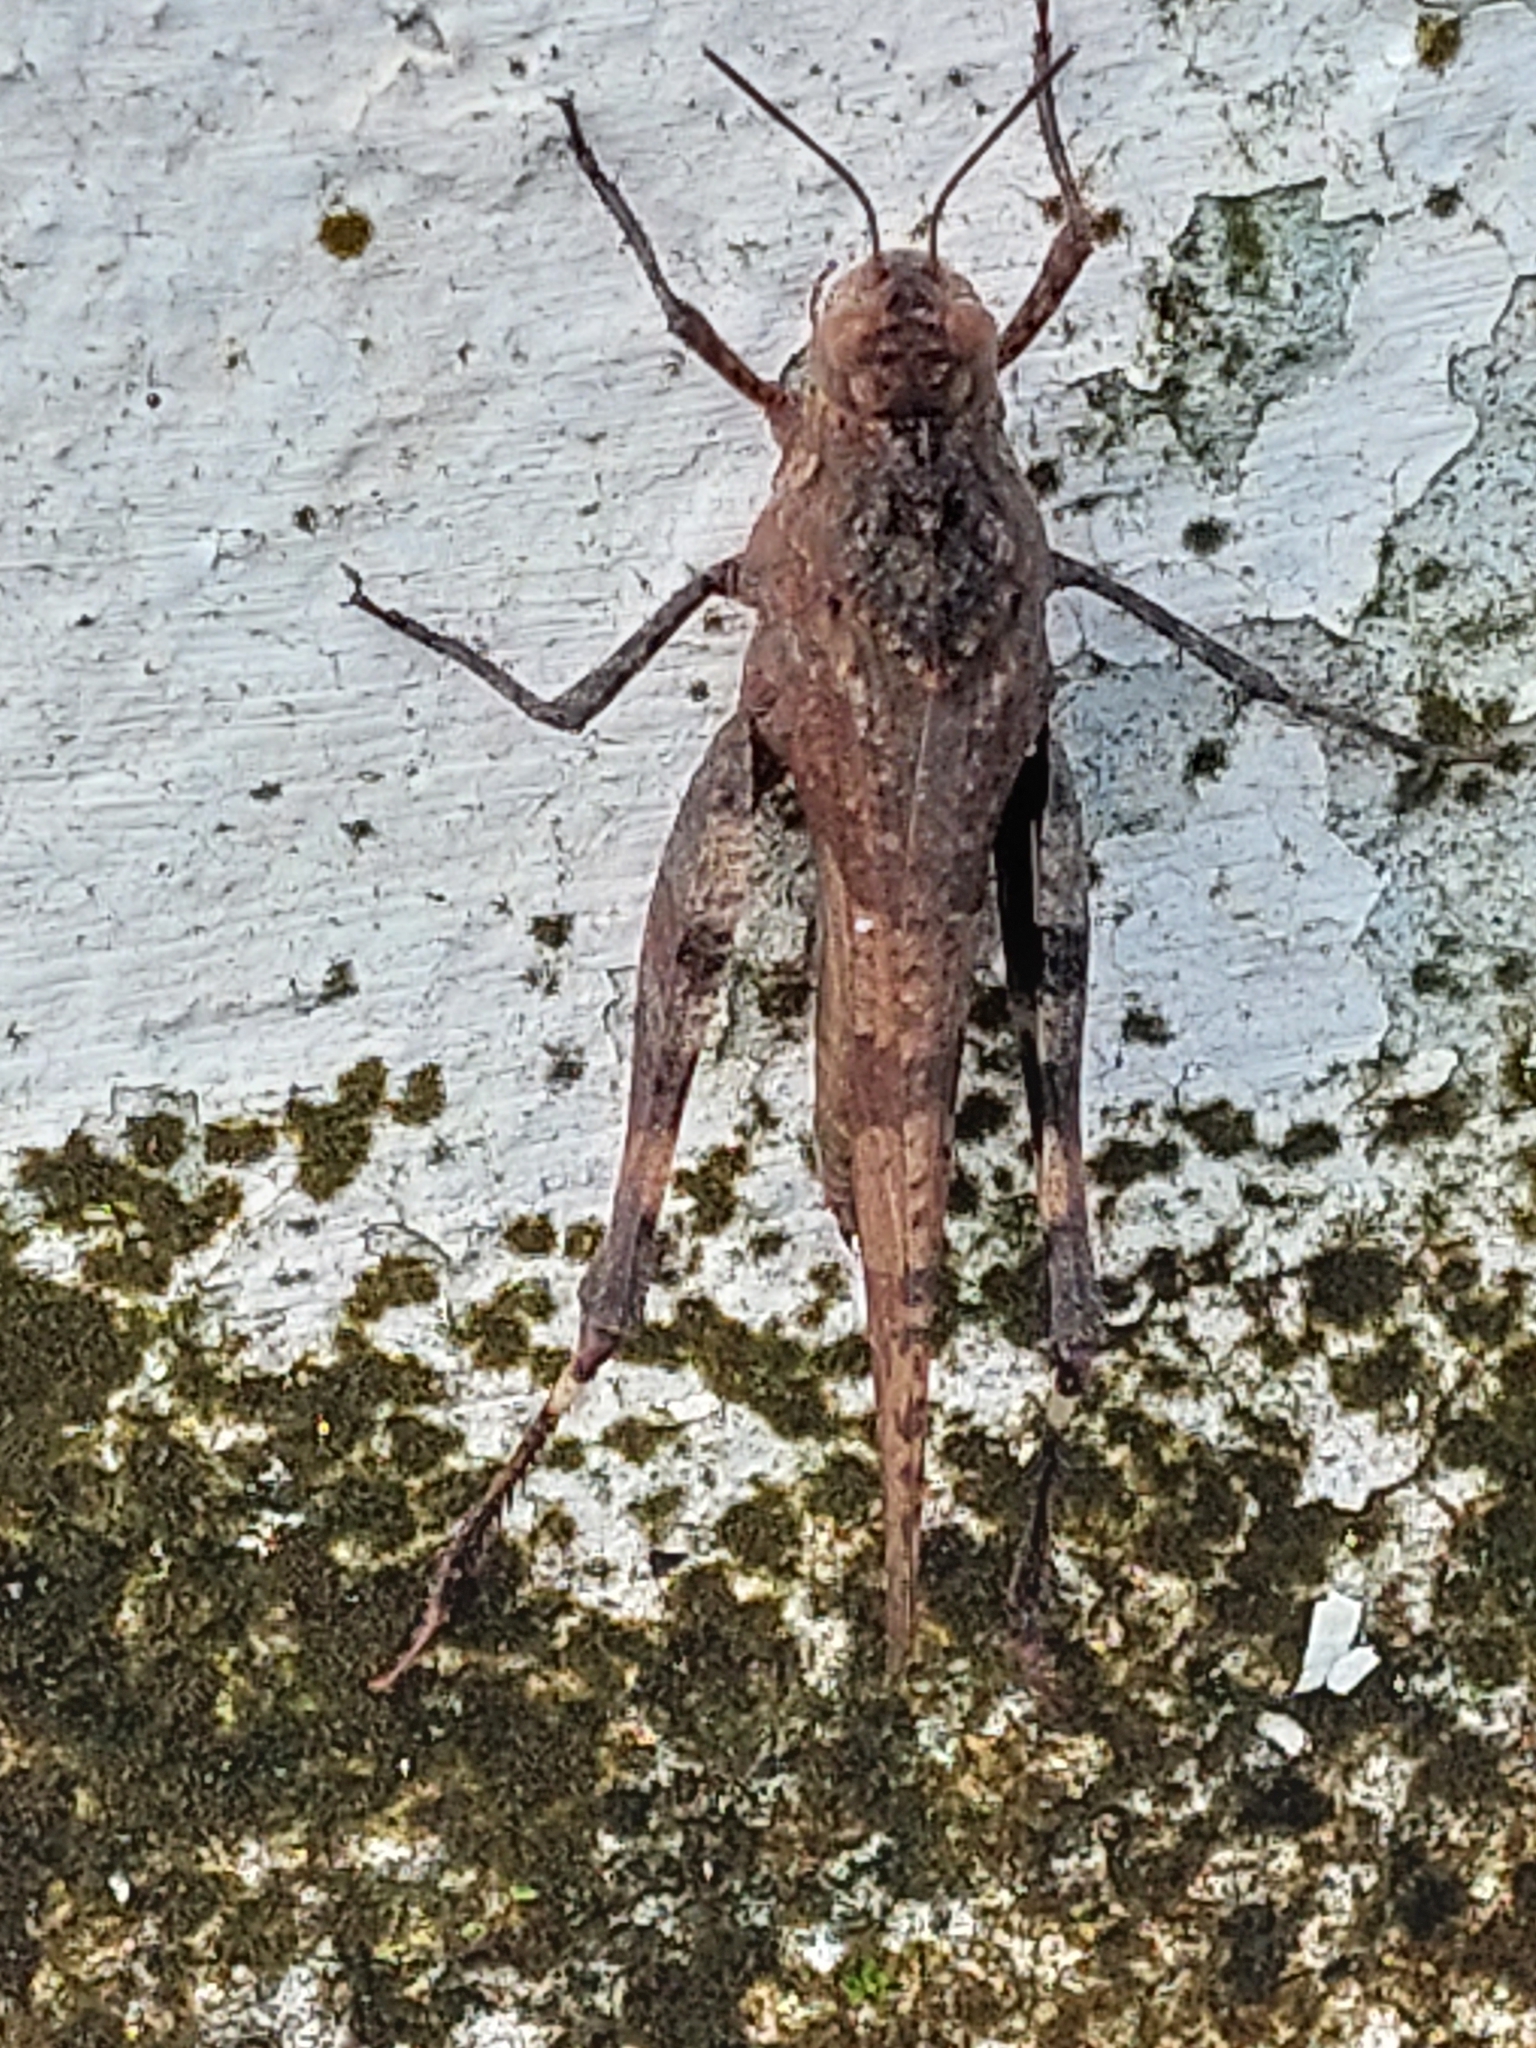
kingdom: Animalia
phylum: Arthropoda
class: Insecta
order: Orthoptera
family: Acrididae
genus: Lactista
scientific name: Lactista stramineus
